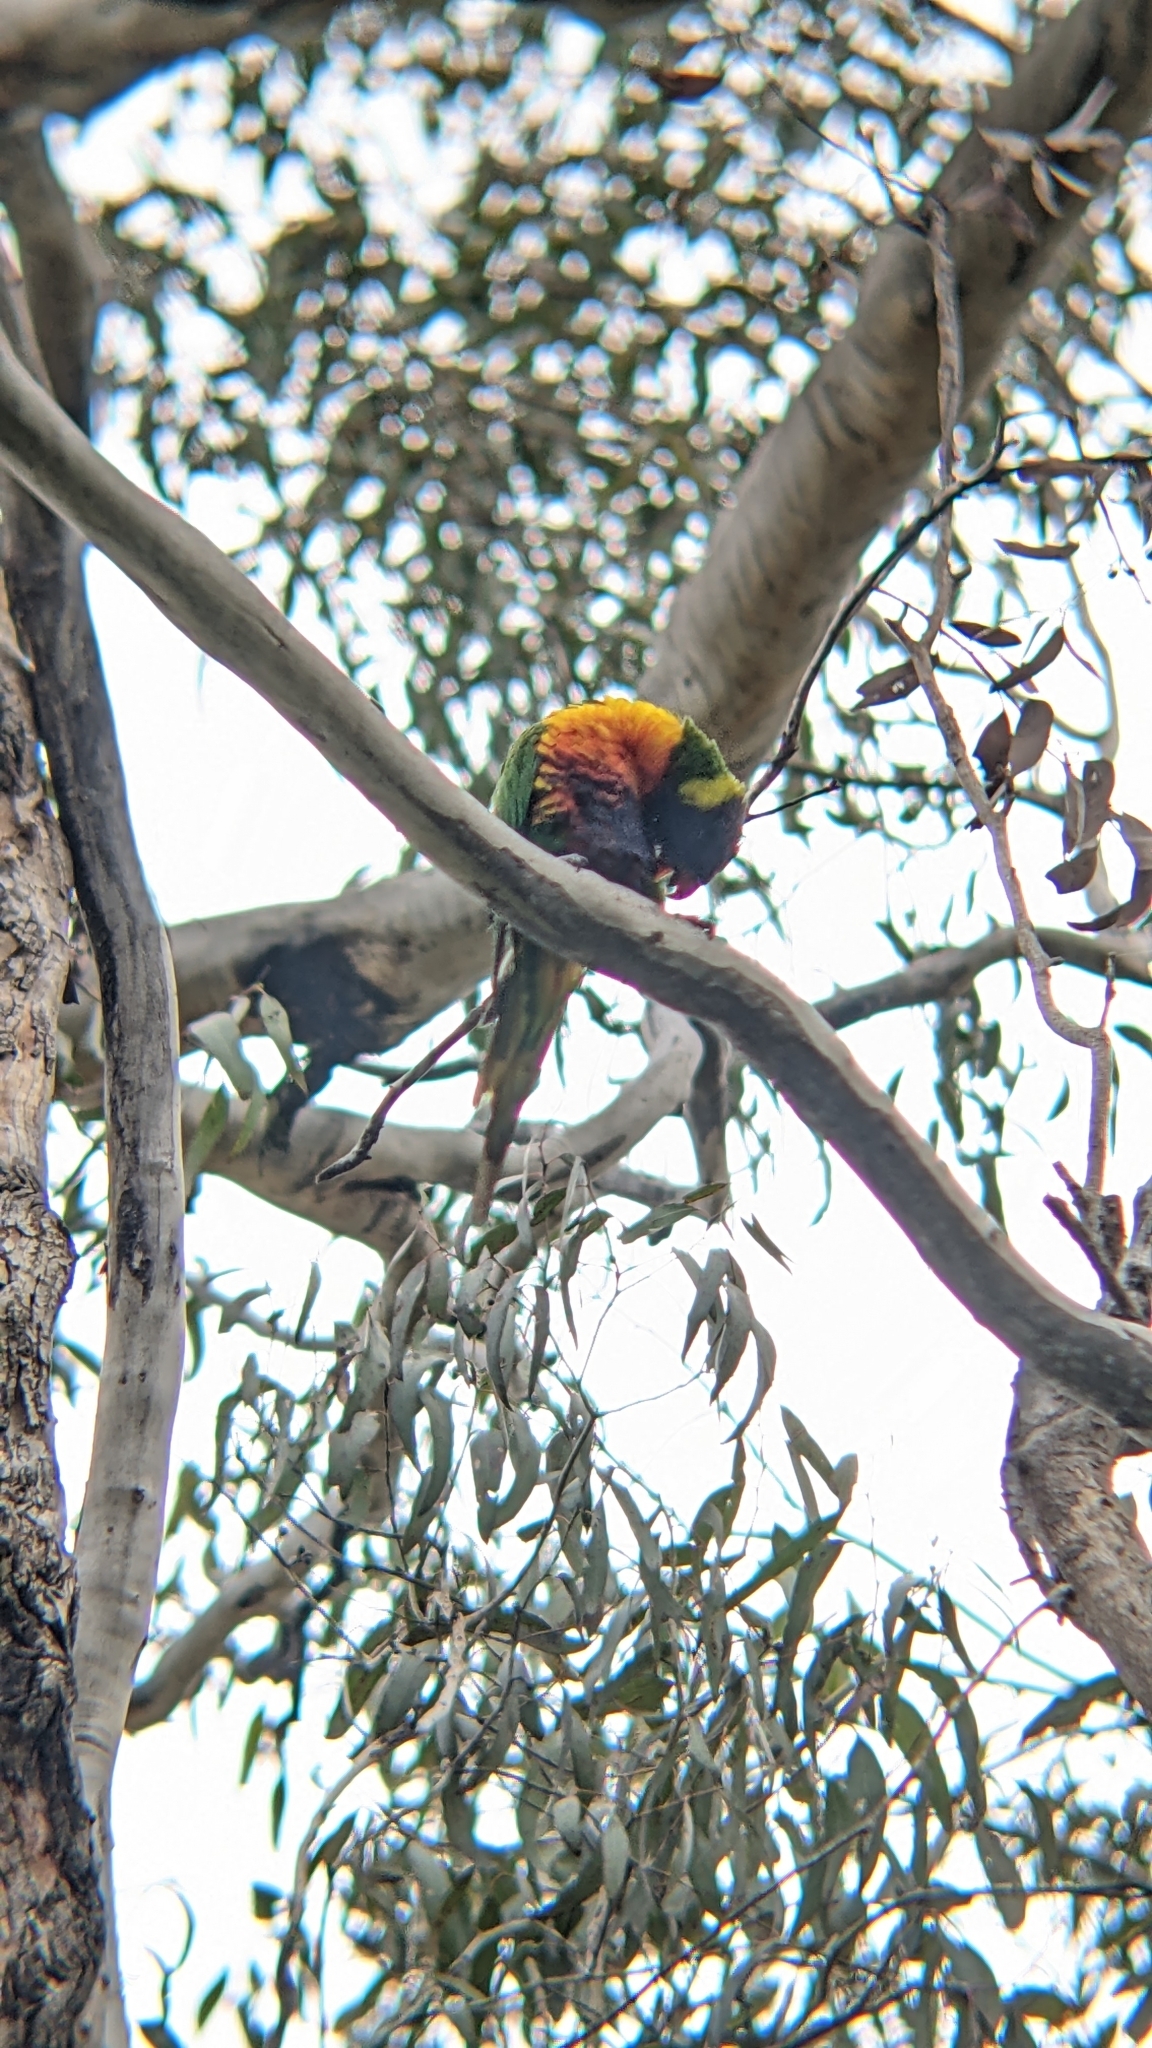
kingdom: Animalia
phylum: Chordata
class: Aves
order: Psittaciformes
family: Psittacidae
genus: Trichoglossus
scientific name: Trichoglossus haematodus
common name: Coconut lorikeet
